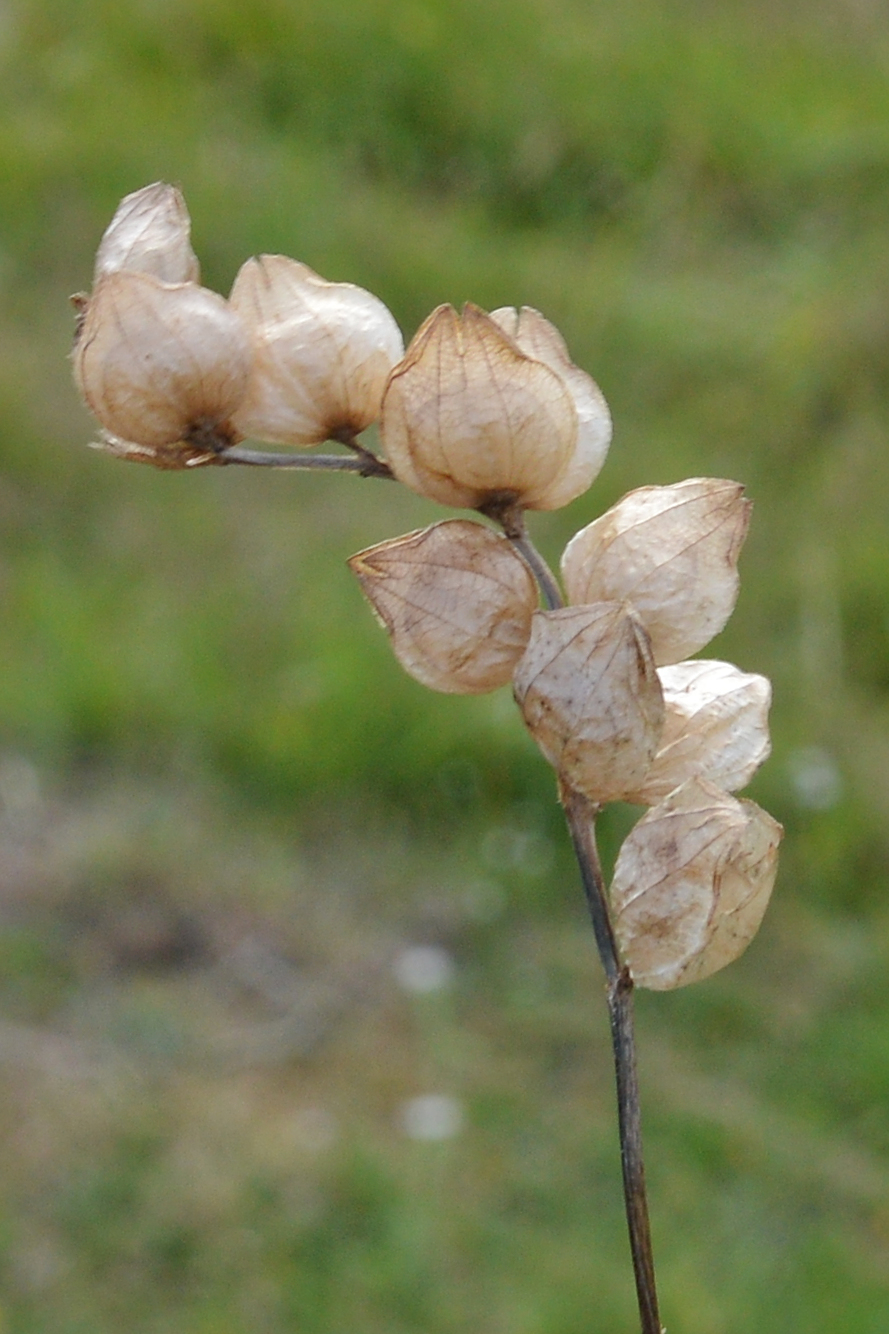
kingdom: Plantae
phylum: Tracheophyta
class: Magnoliopsida
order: Lamiales
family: Orobanchaceae
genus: Rhinanthus
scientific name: Rhinanthus minor
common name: Yellow-rattle
